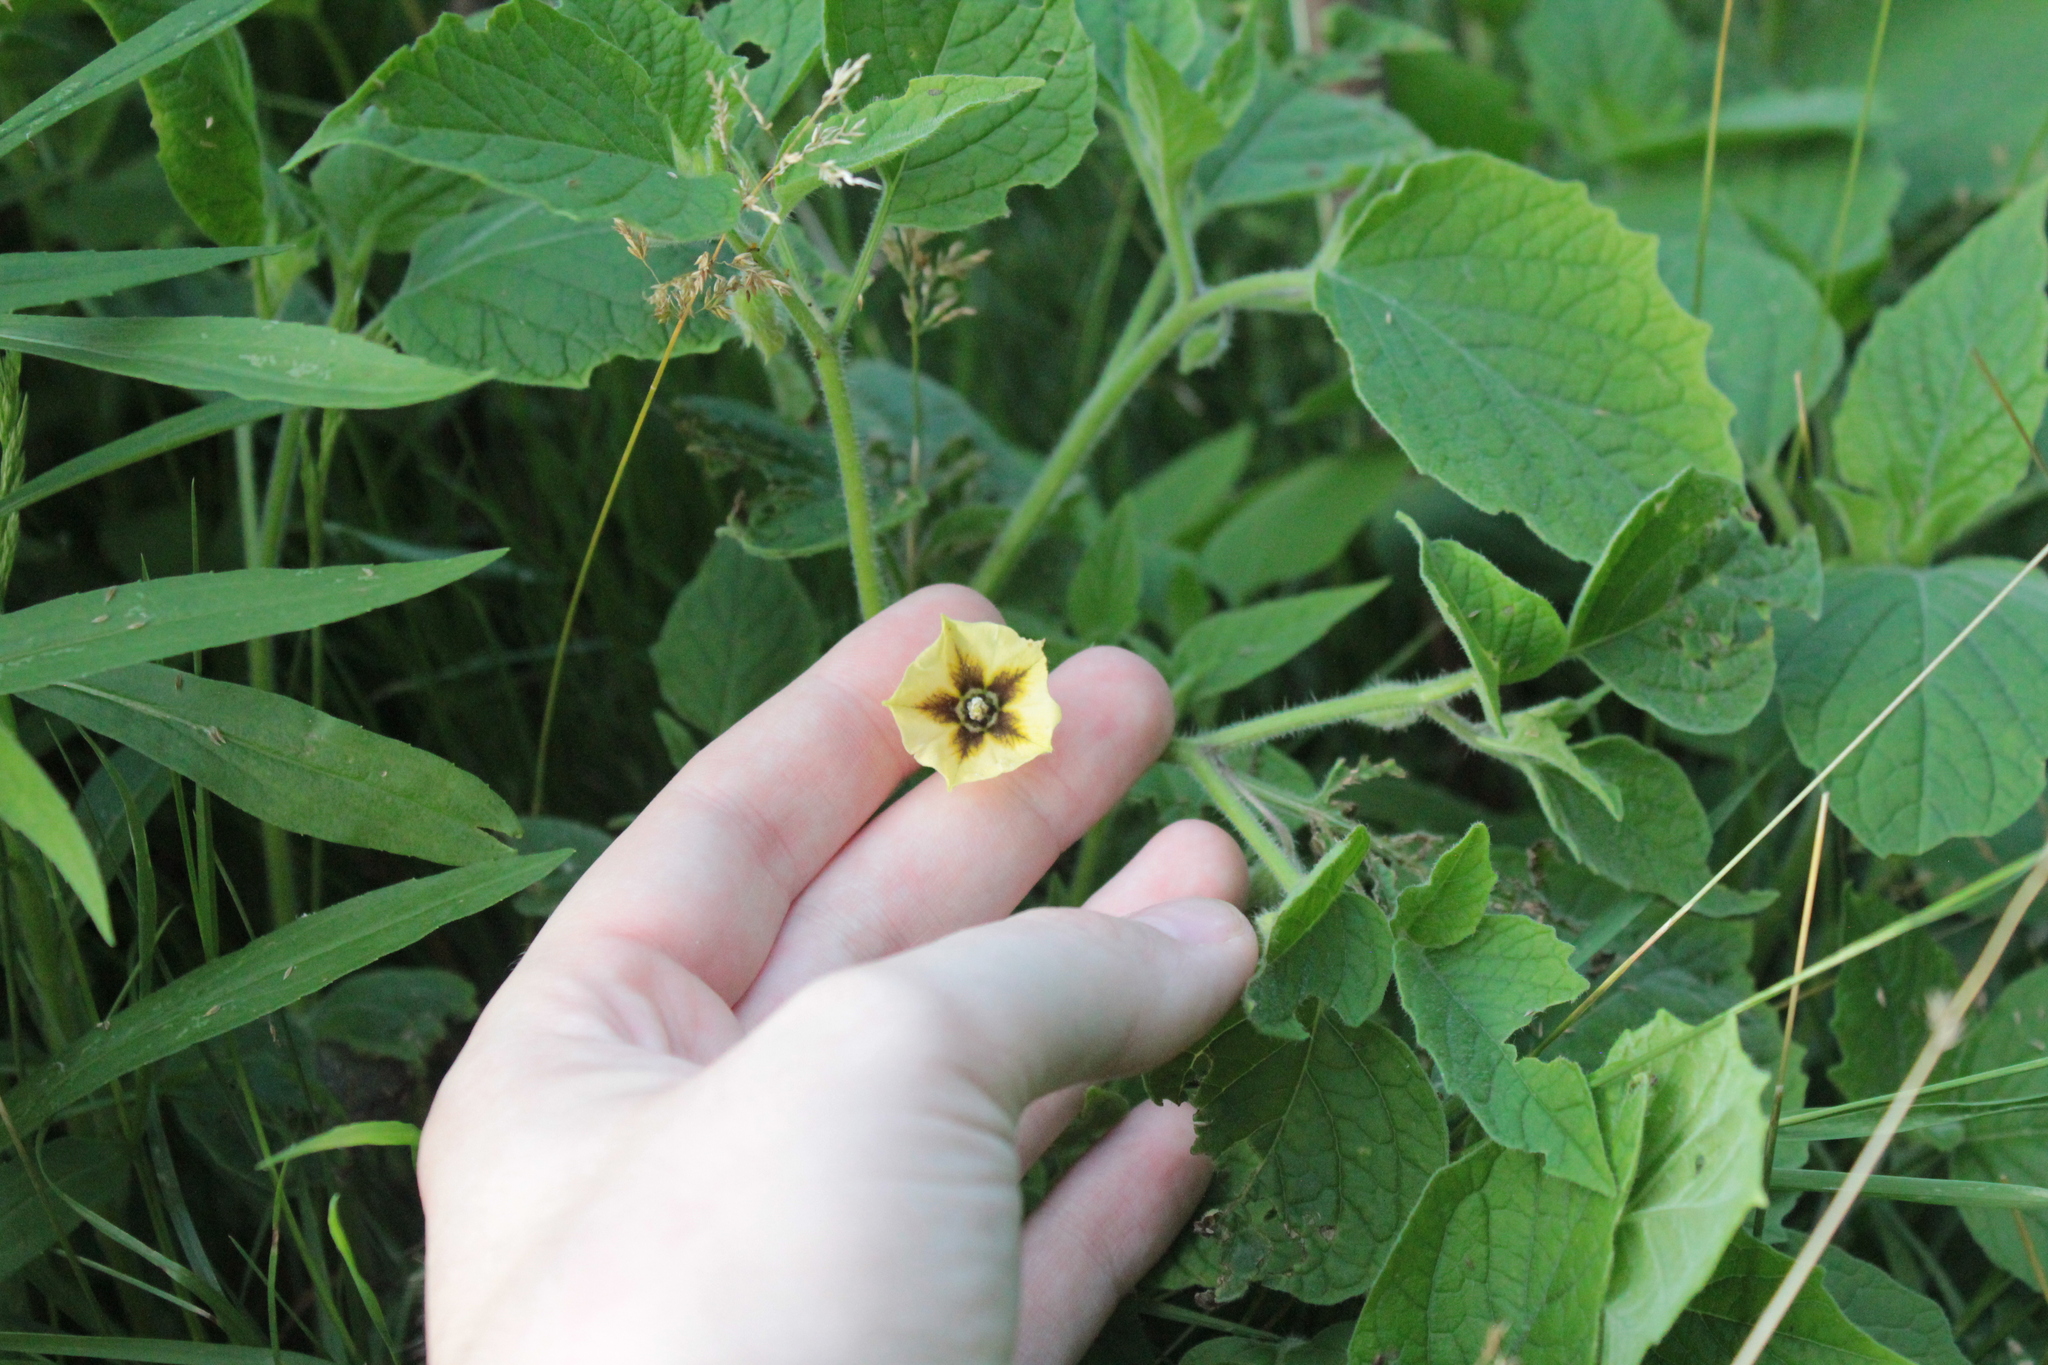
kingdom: Plantae
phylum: Tracheophyta
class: Magnoliopsida
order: Solanales
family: Solanaceae
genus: Physalis
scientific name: Physalis heterophylla
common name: Clammy ground-cherry
